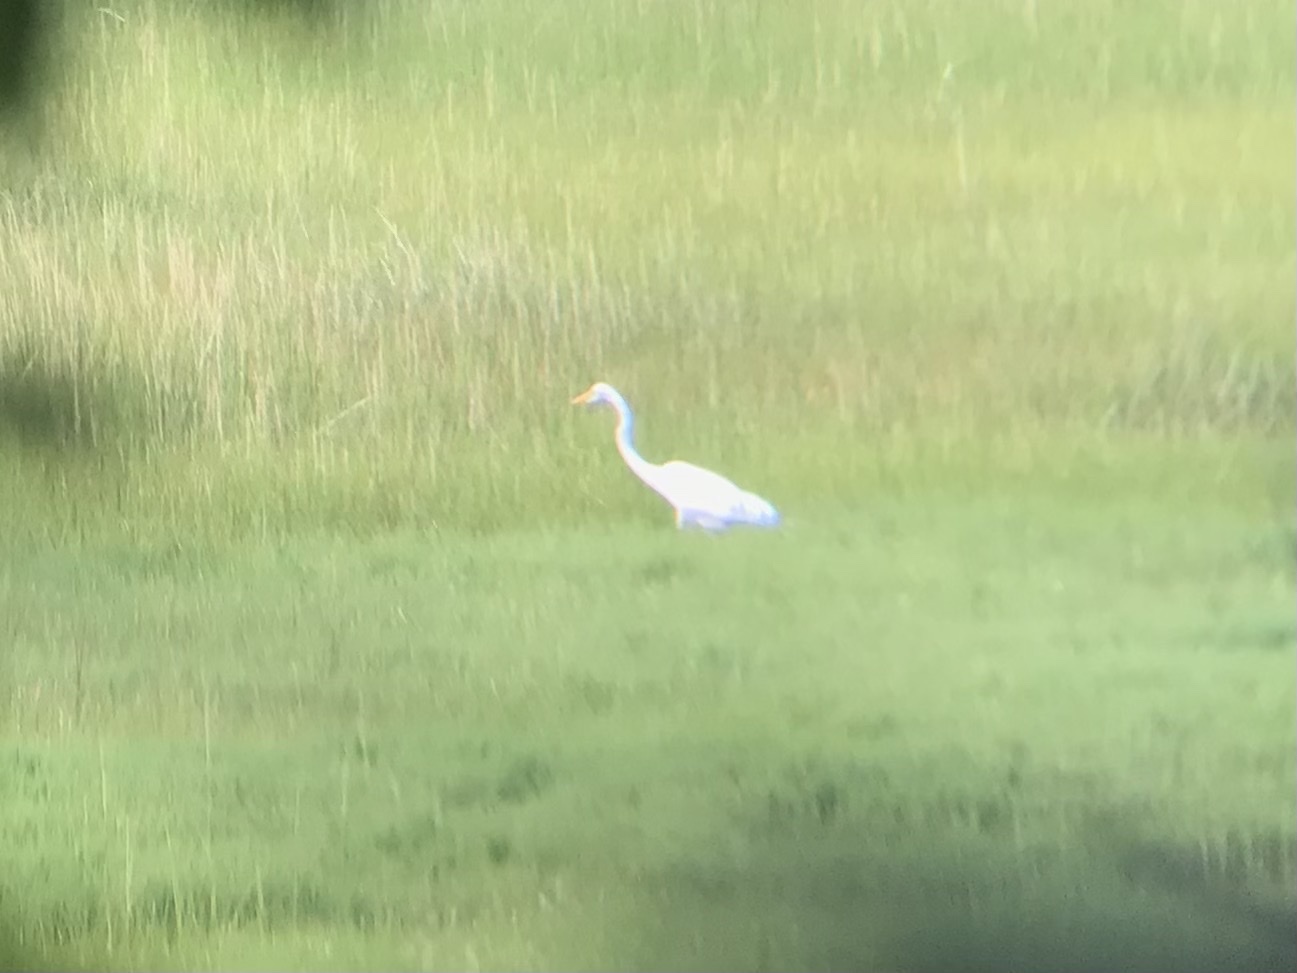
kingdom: Animalia
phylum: Chordata
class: Aves
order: Pelecaniformes
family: Ardeidae
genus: Ardea
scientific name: Ardea alba
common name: Great egret
